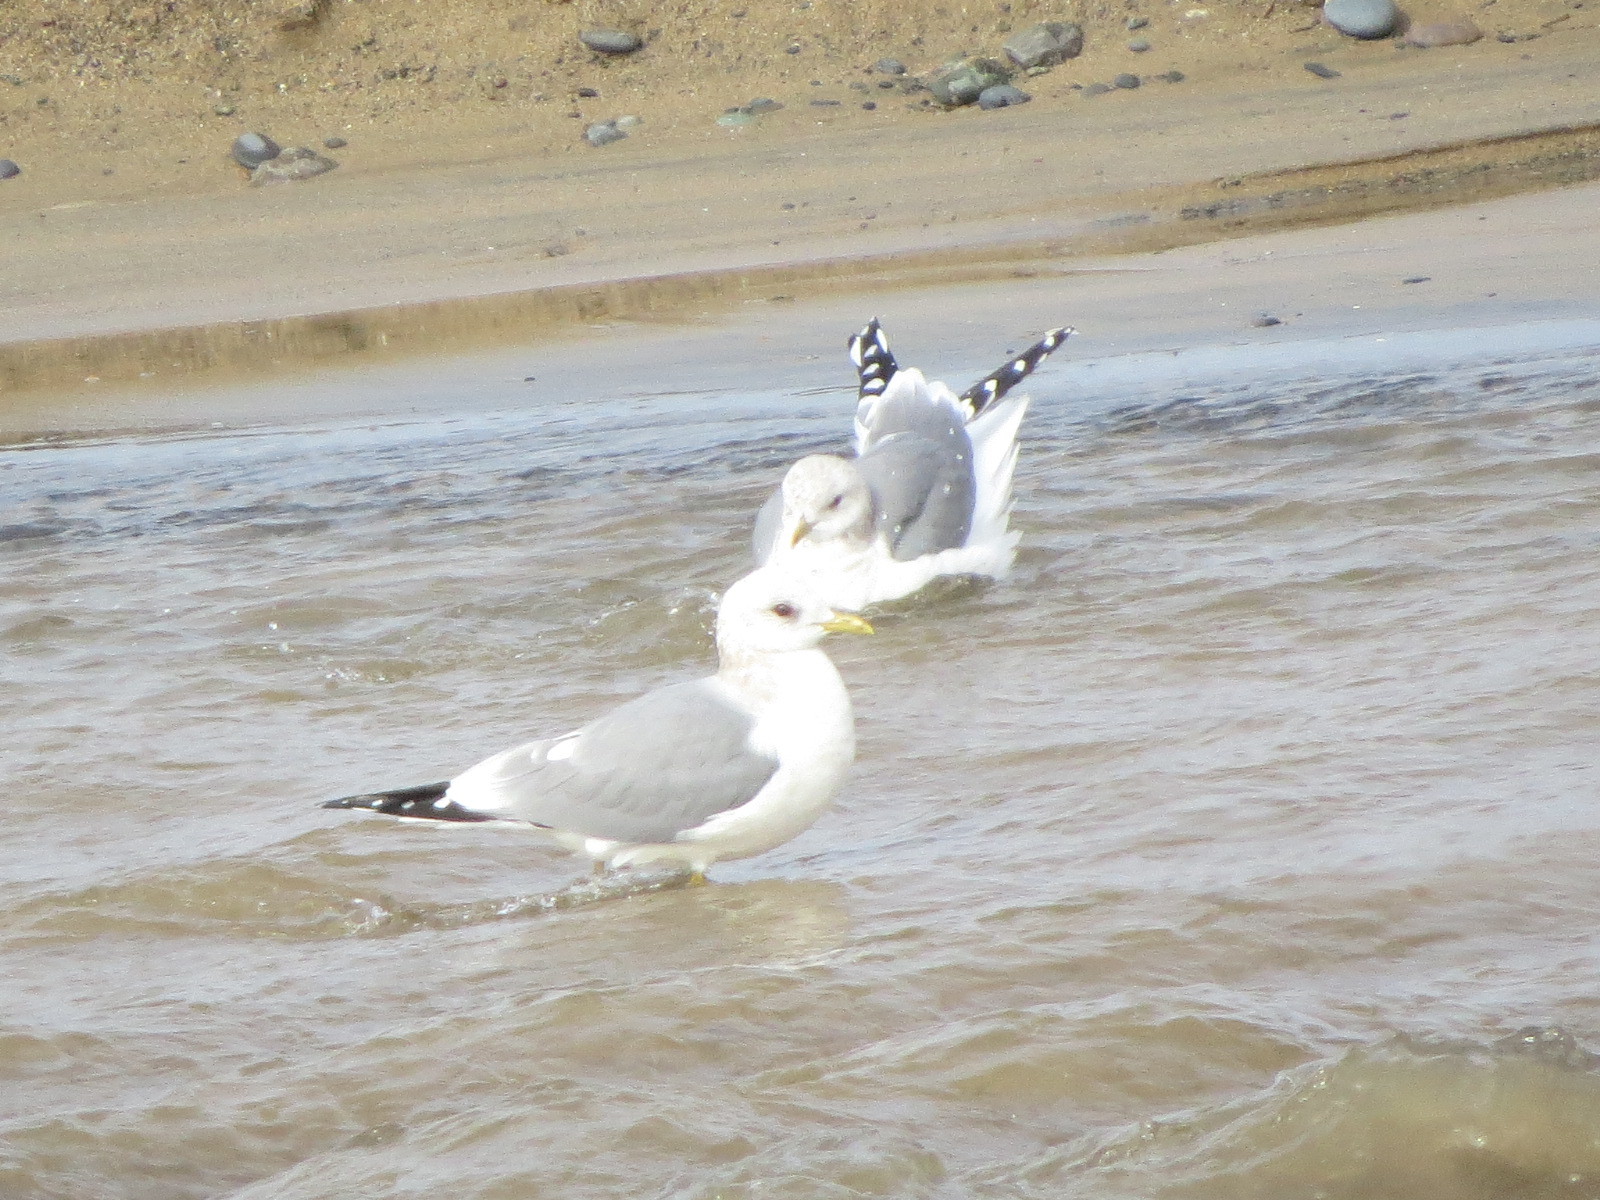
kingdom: Animalia
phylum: Chordata
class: Aves
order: Charadriiformes
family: Laridae
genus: Larus
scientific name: Larus brachyrhynchus
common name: Short-billed gull
